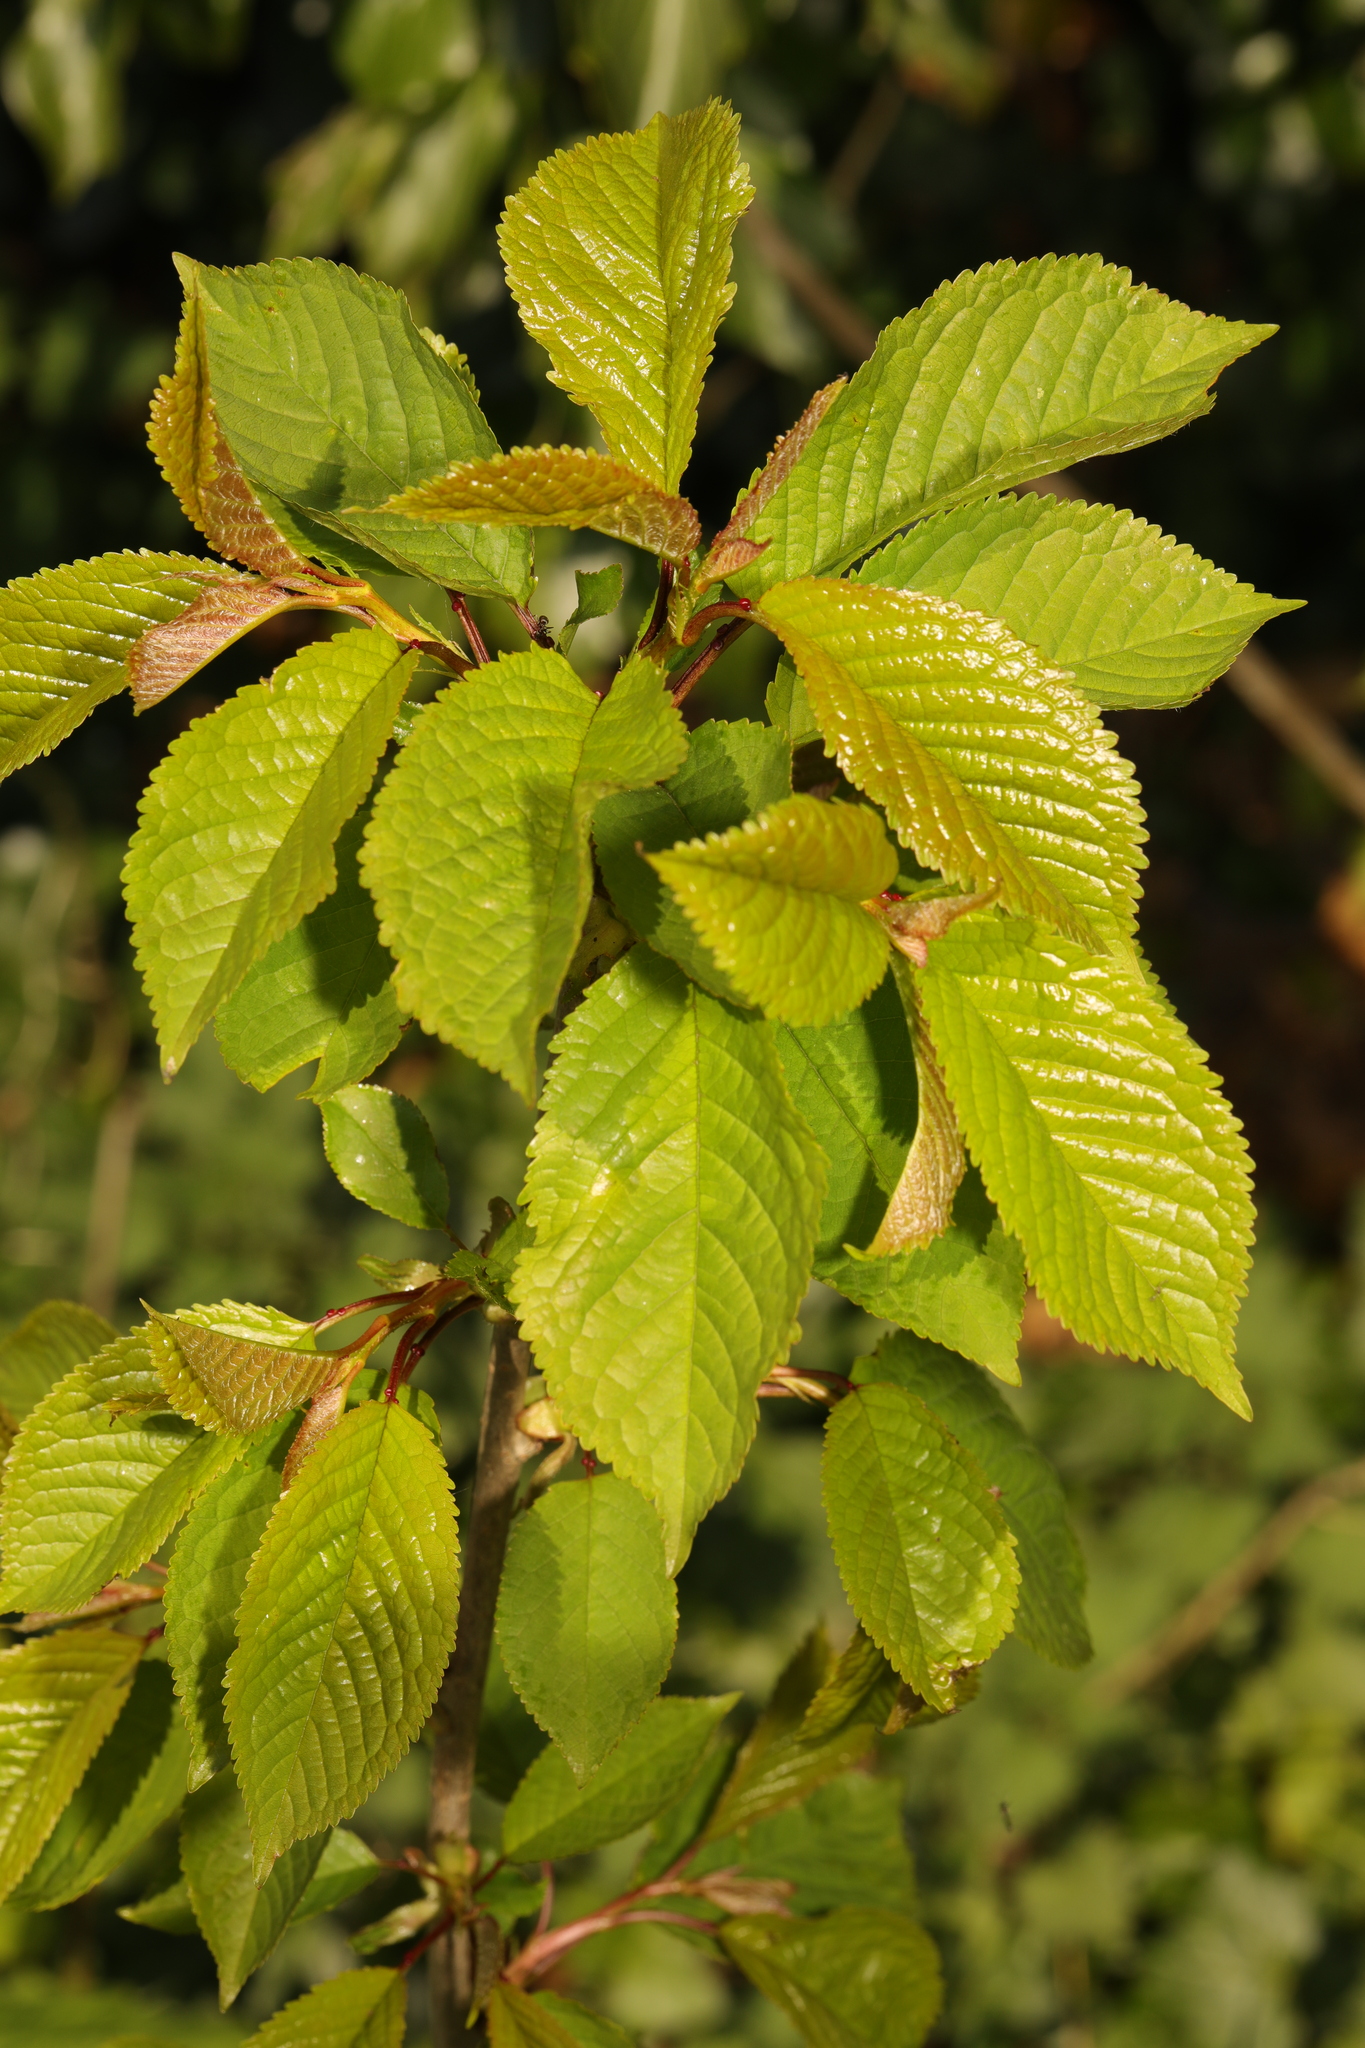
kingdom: Plantae
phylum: Tracheophyta
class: Magnoliopsida
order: Rosales
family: Rosaceae
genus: Prunus
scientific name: Prunus avium
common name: Sweet cherry
